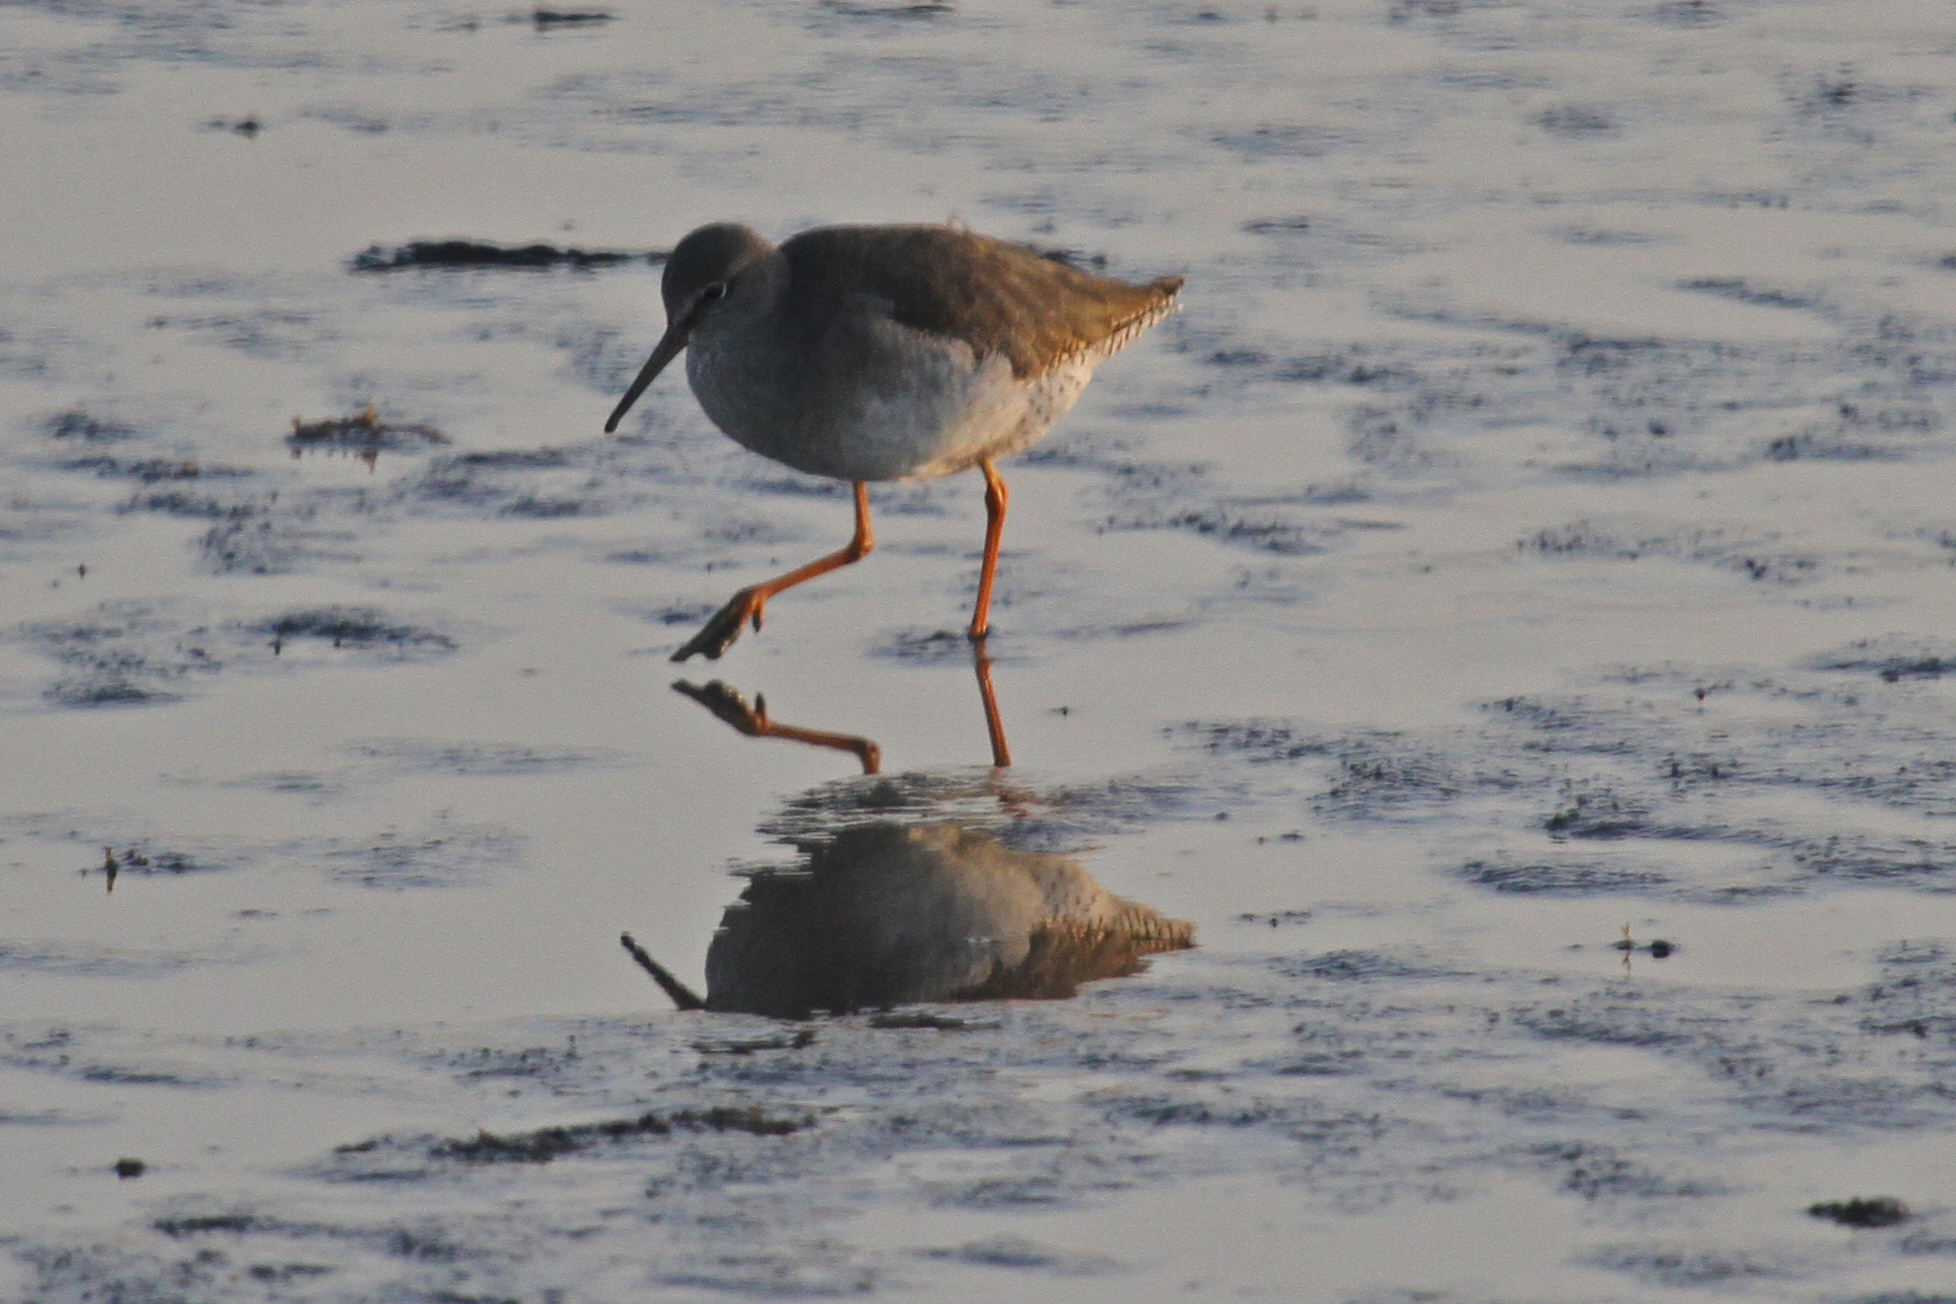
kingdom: Animalia
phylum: Chordata
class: Aves
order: Charadriiformes
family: Scolopacidae
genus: Tringa
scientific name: Tringa totanus
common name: Common redshank
